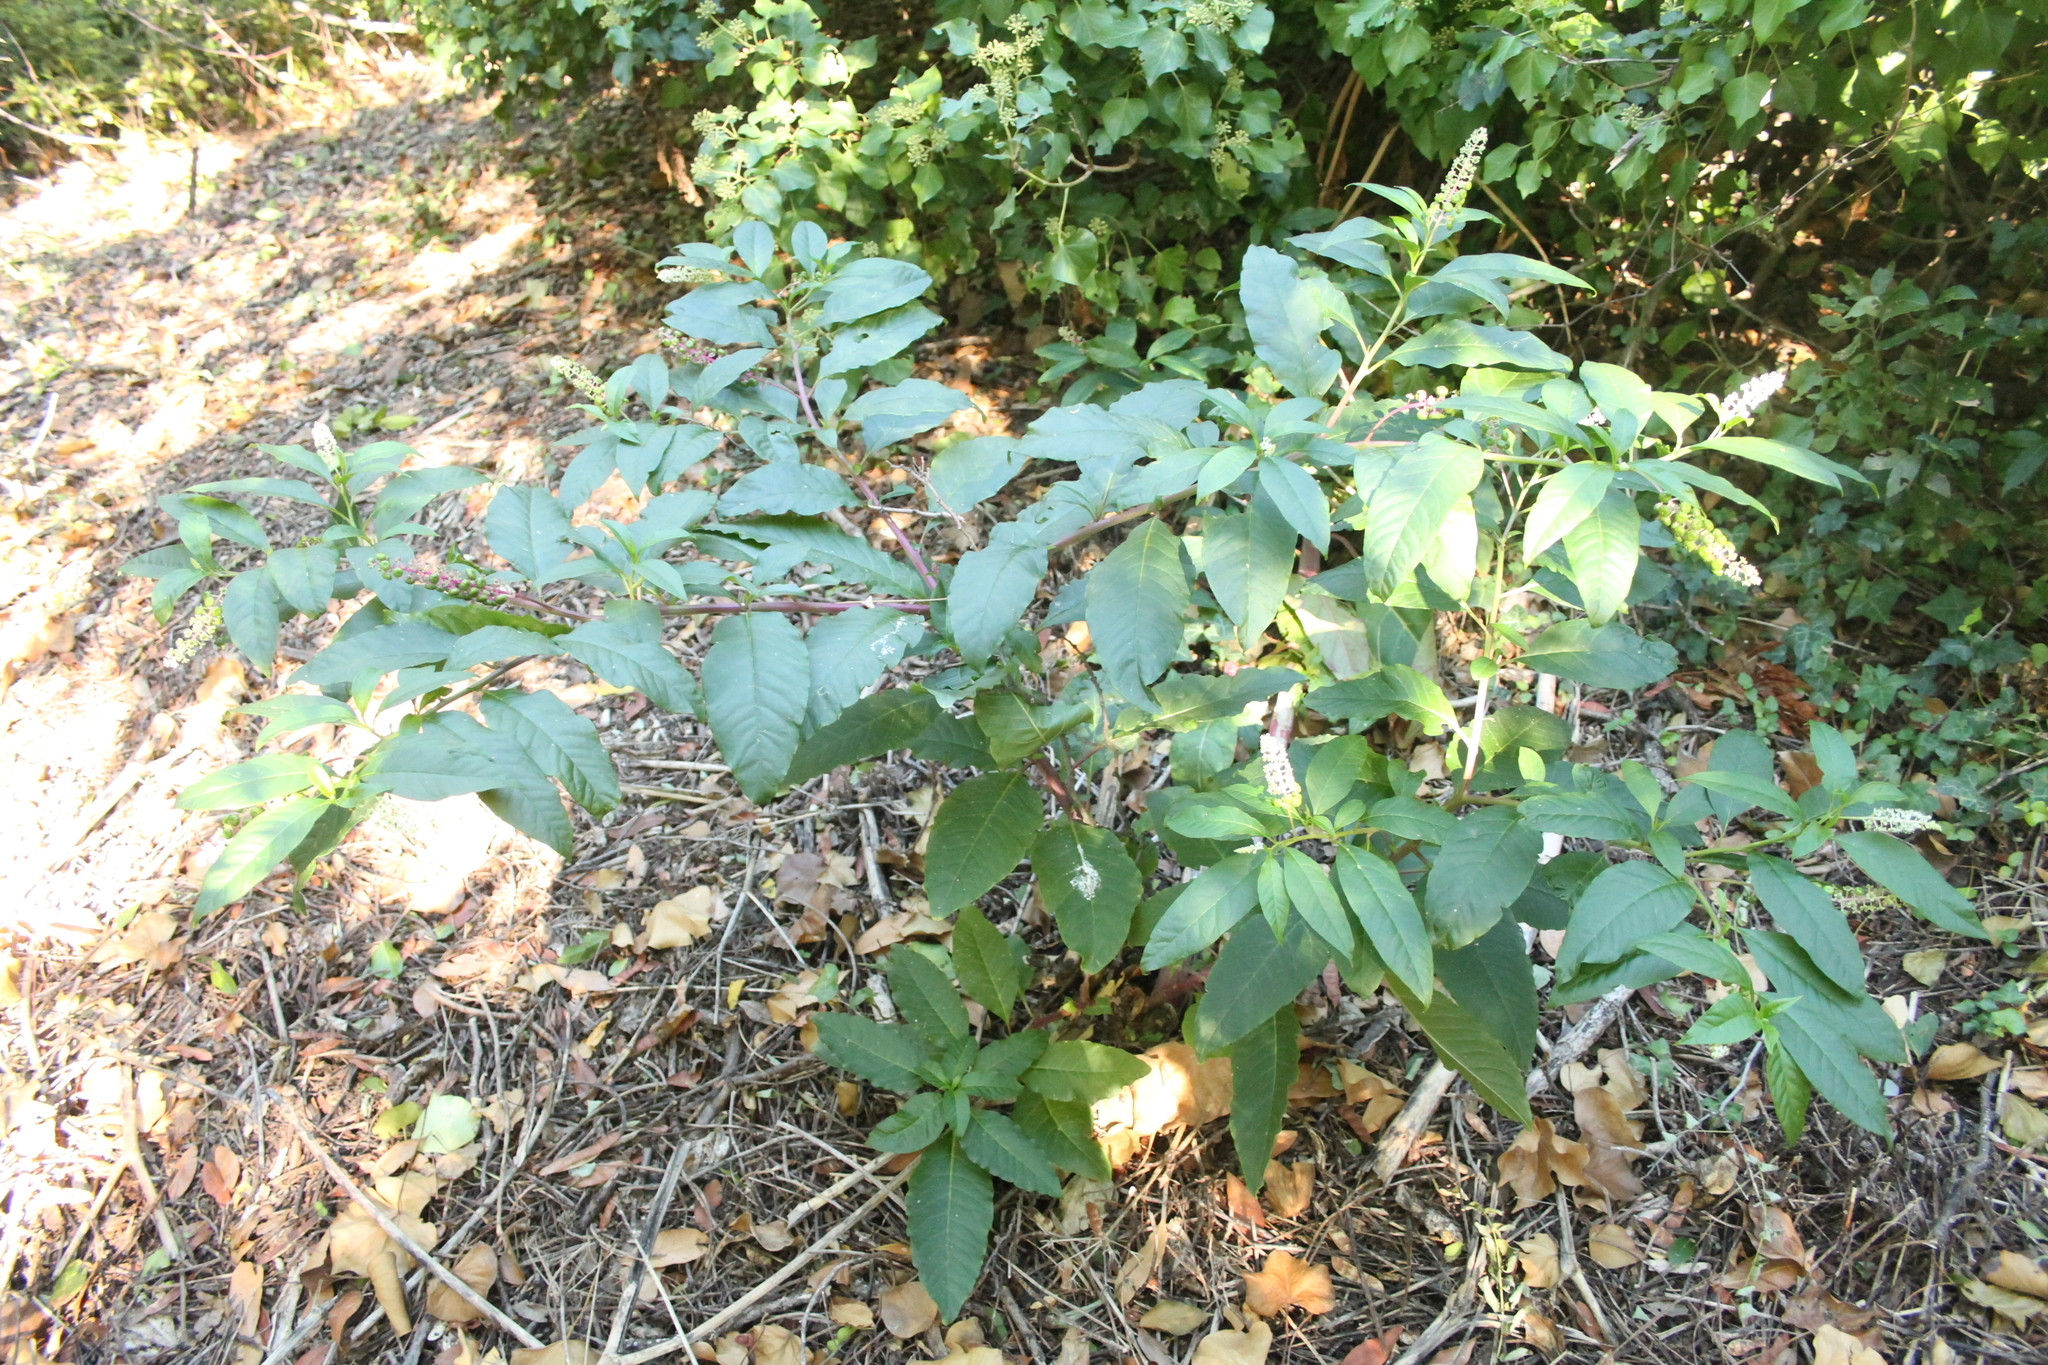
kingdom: Plantae
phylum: Tracheophyta
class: Magnoliopsida
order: Caryophyllales
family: Phytolaccaceae
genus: Phytolacca
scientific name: Phytolacca americana
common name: American pokeweed
